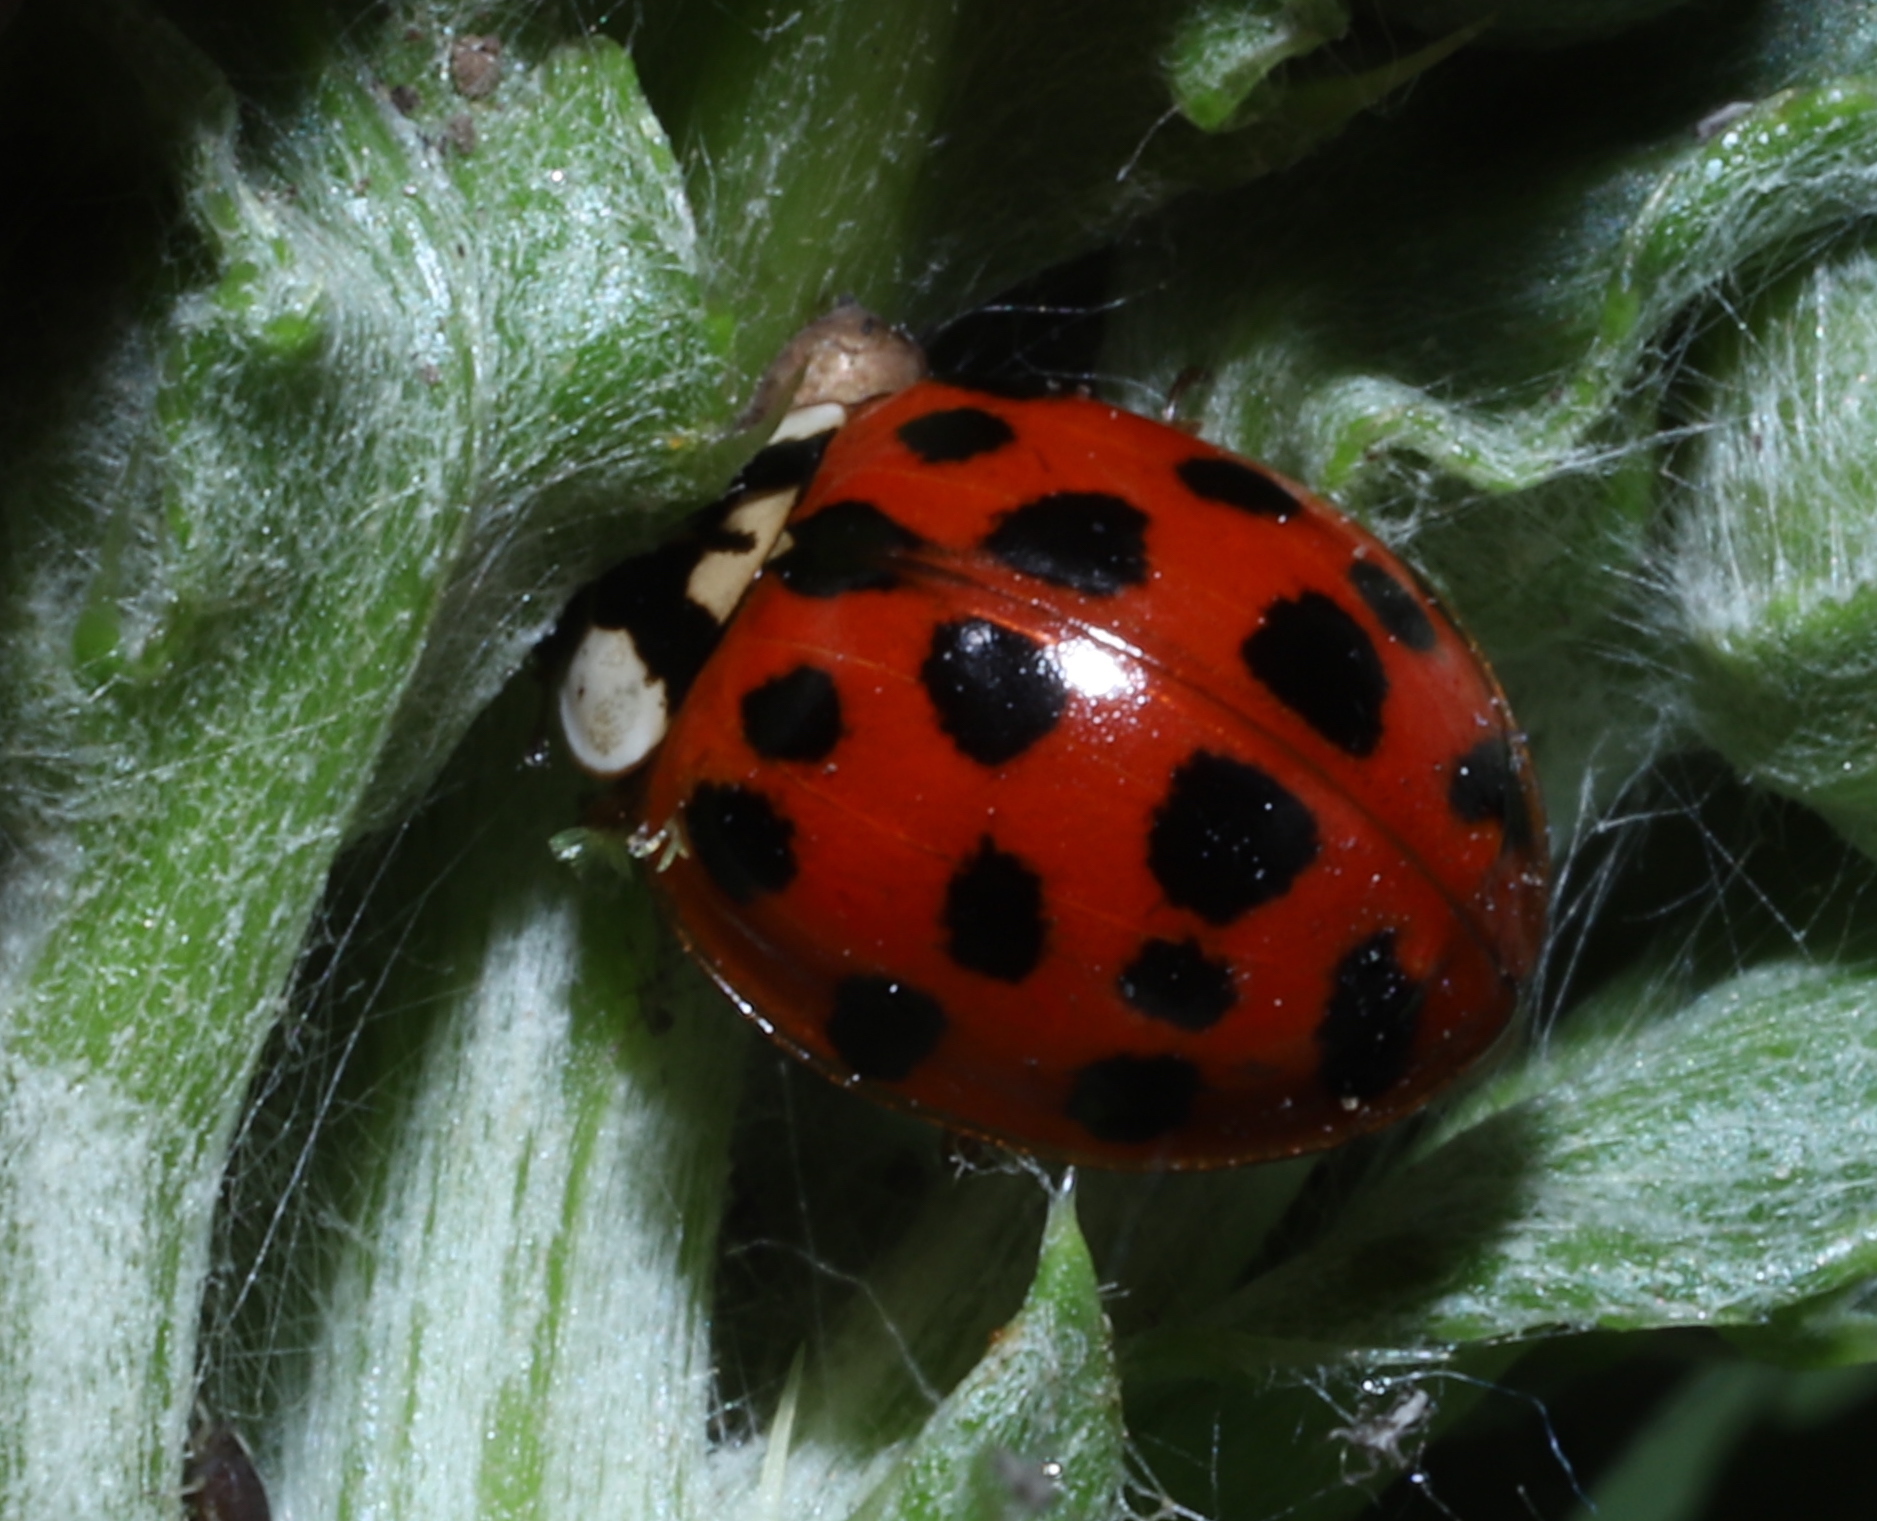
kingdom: Animalia
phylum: Arthropoda
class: Insecta
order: Coleoptera
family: Coccinellidae
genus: Harmonia
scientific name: Harmonia axyridis
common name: Harlequin ladybird
